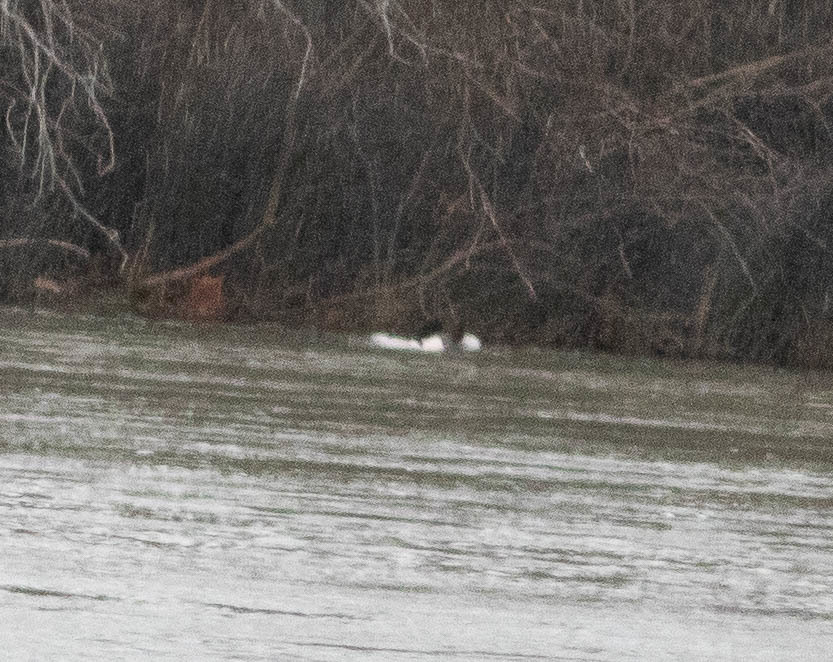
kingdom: Animalia
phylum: Chordata
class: Aves
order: Anseriformes
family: Anatidae
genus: Mergus
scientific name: Mergus merganser
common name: Common merganser
